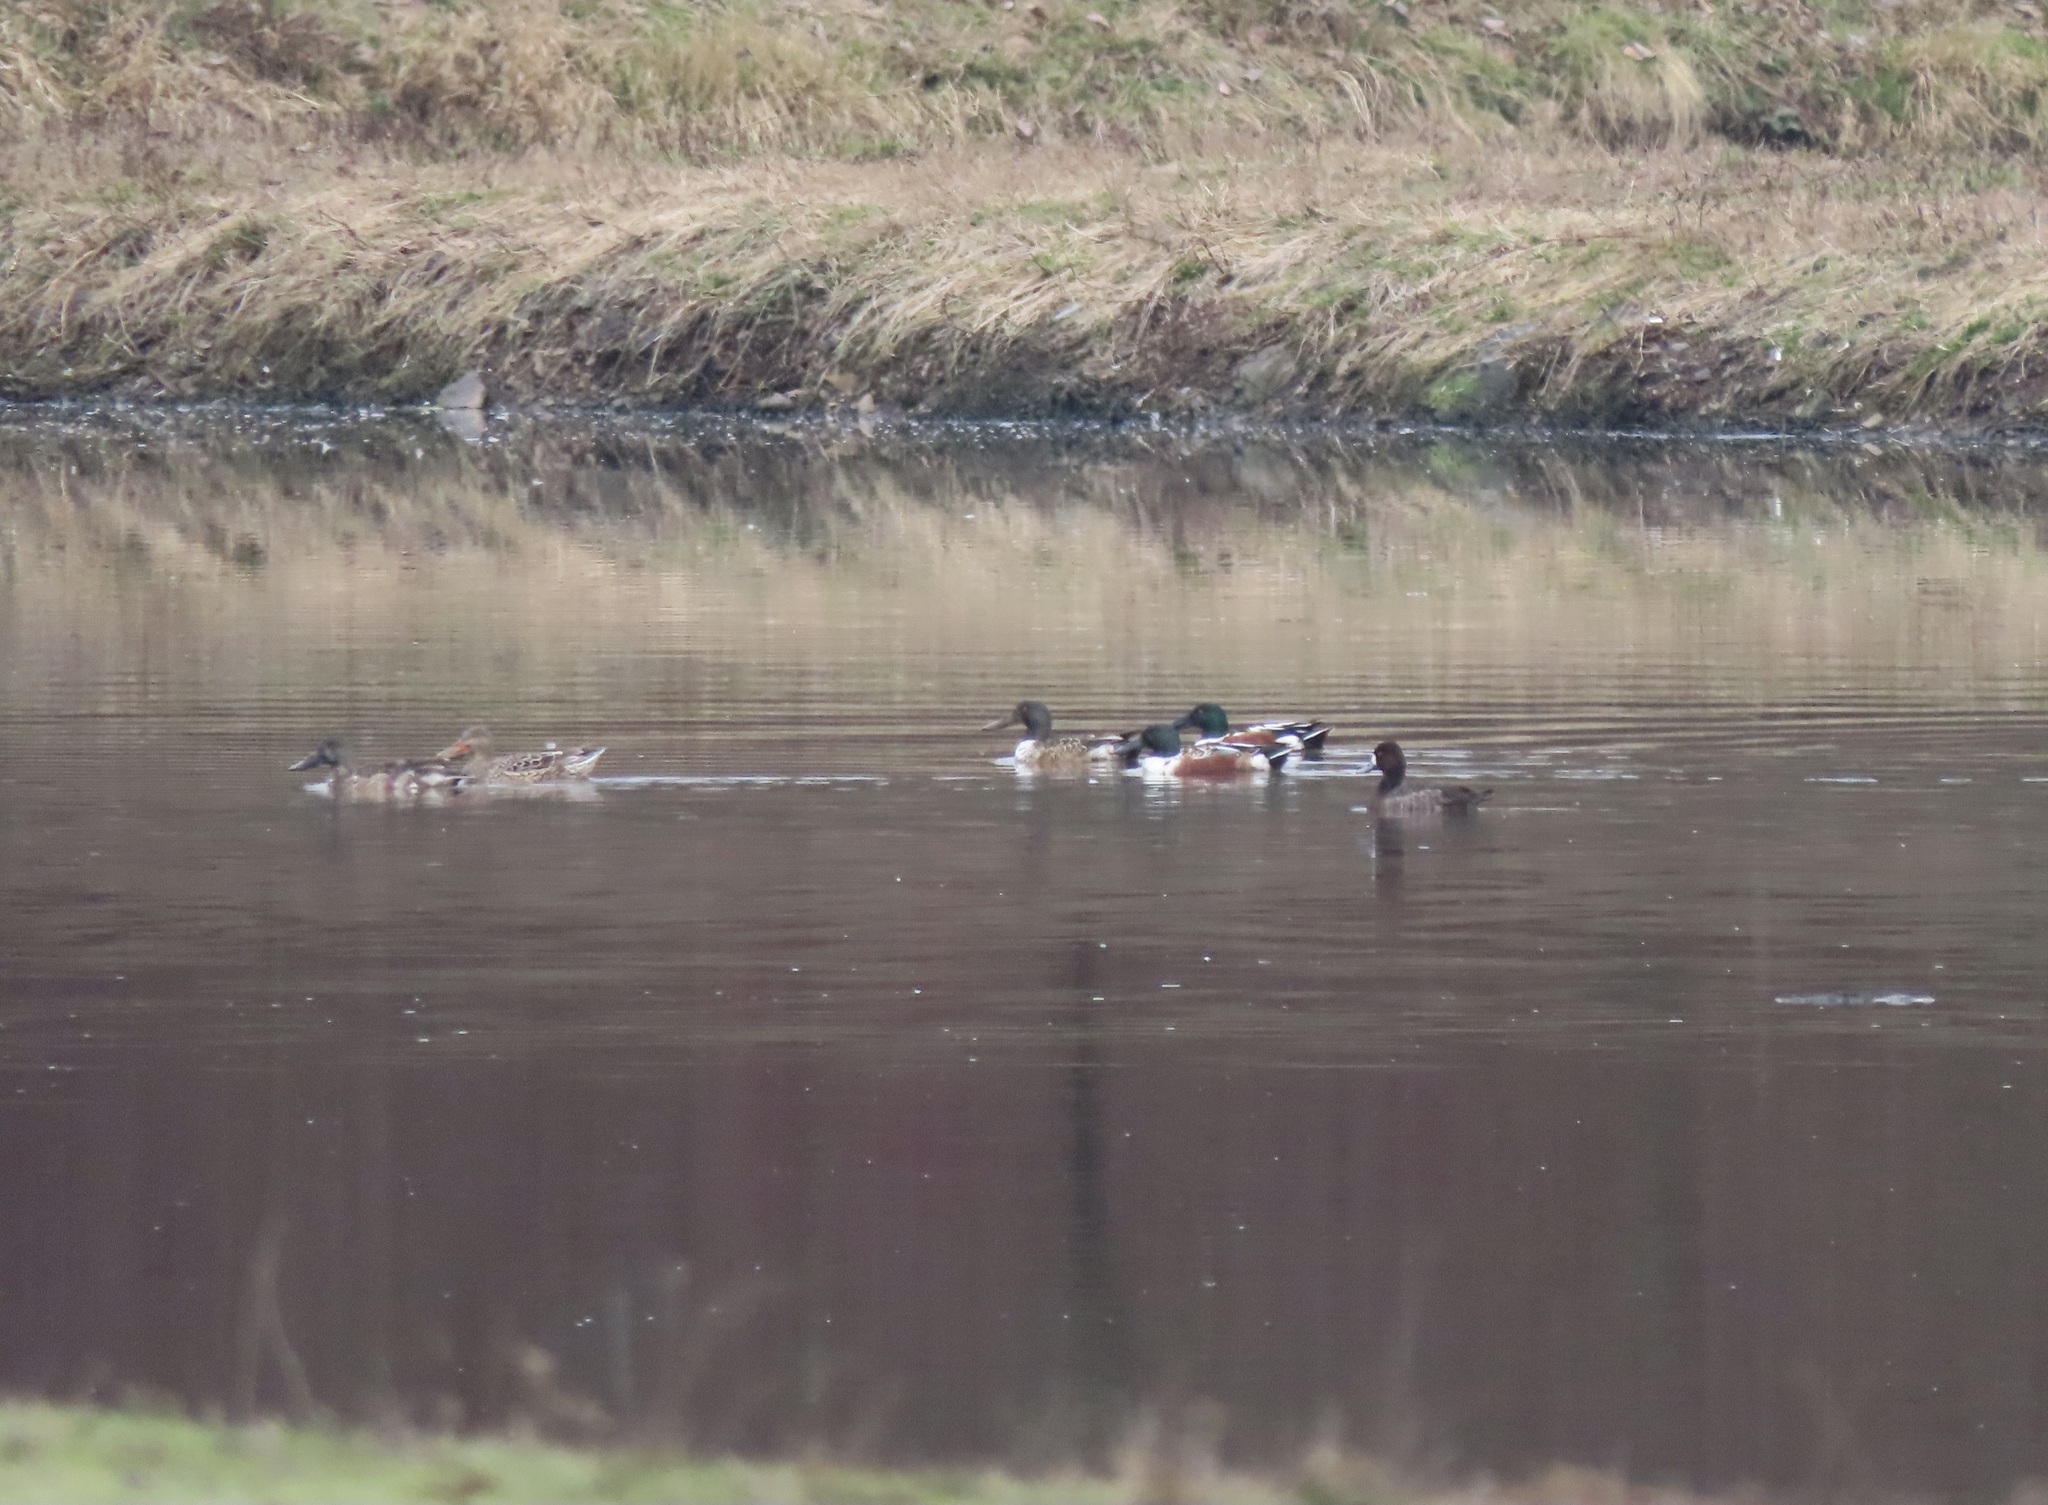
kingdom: Animalia
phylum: Chordata
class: Aves
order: Anseriformes
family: Anatidae
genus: Aythya
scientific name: Aythya affinis
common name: Lesser scaup
